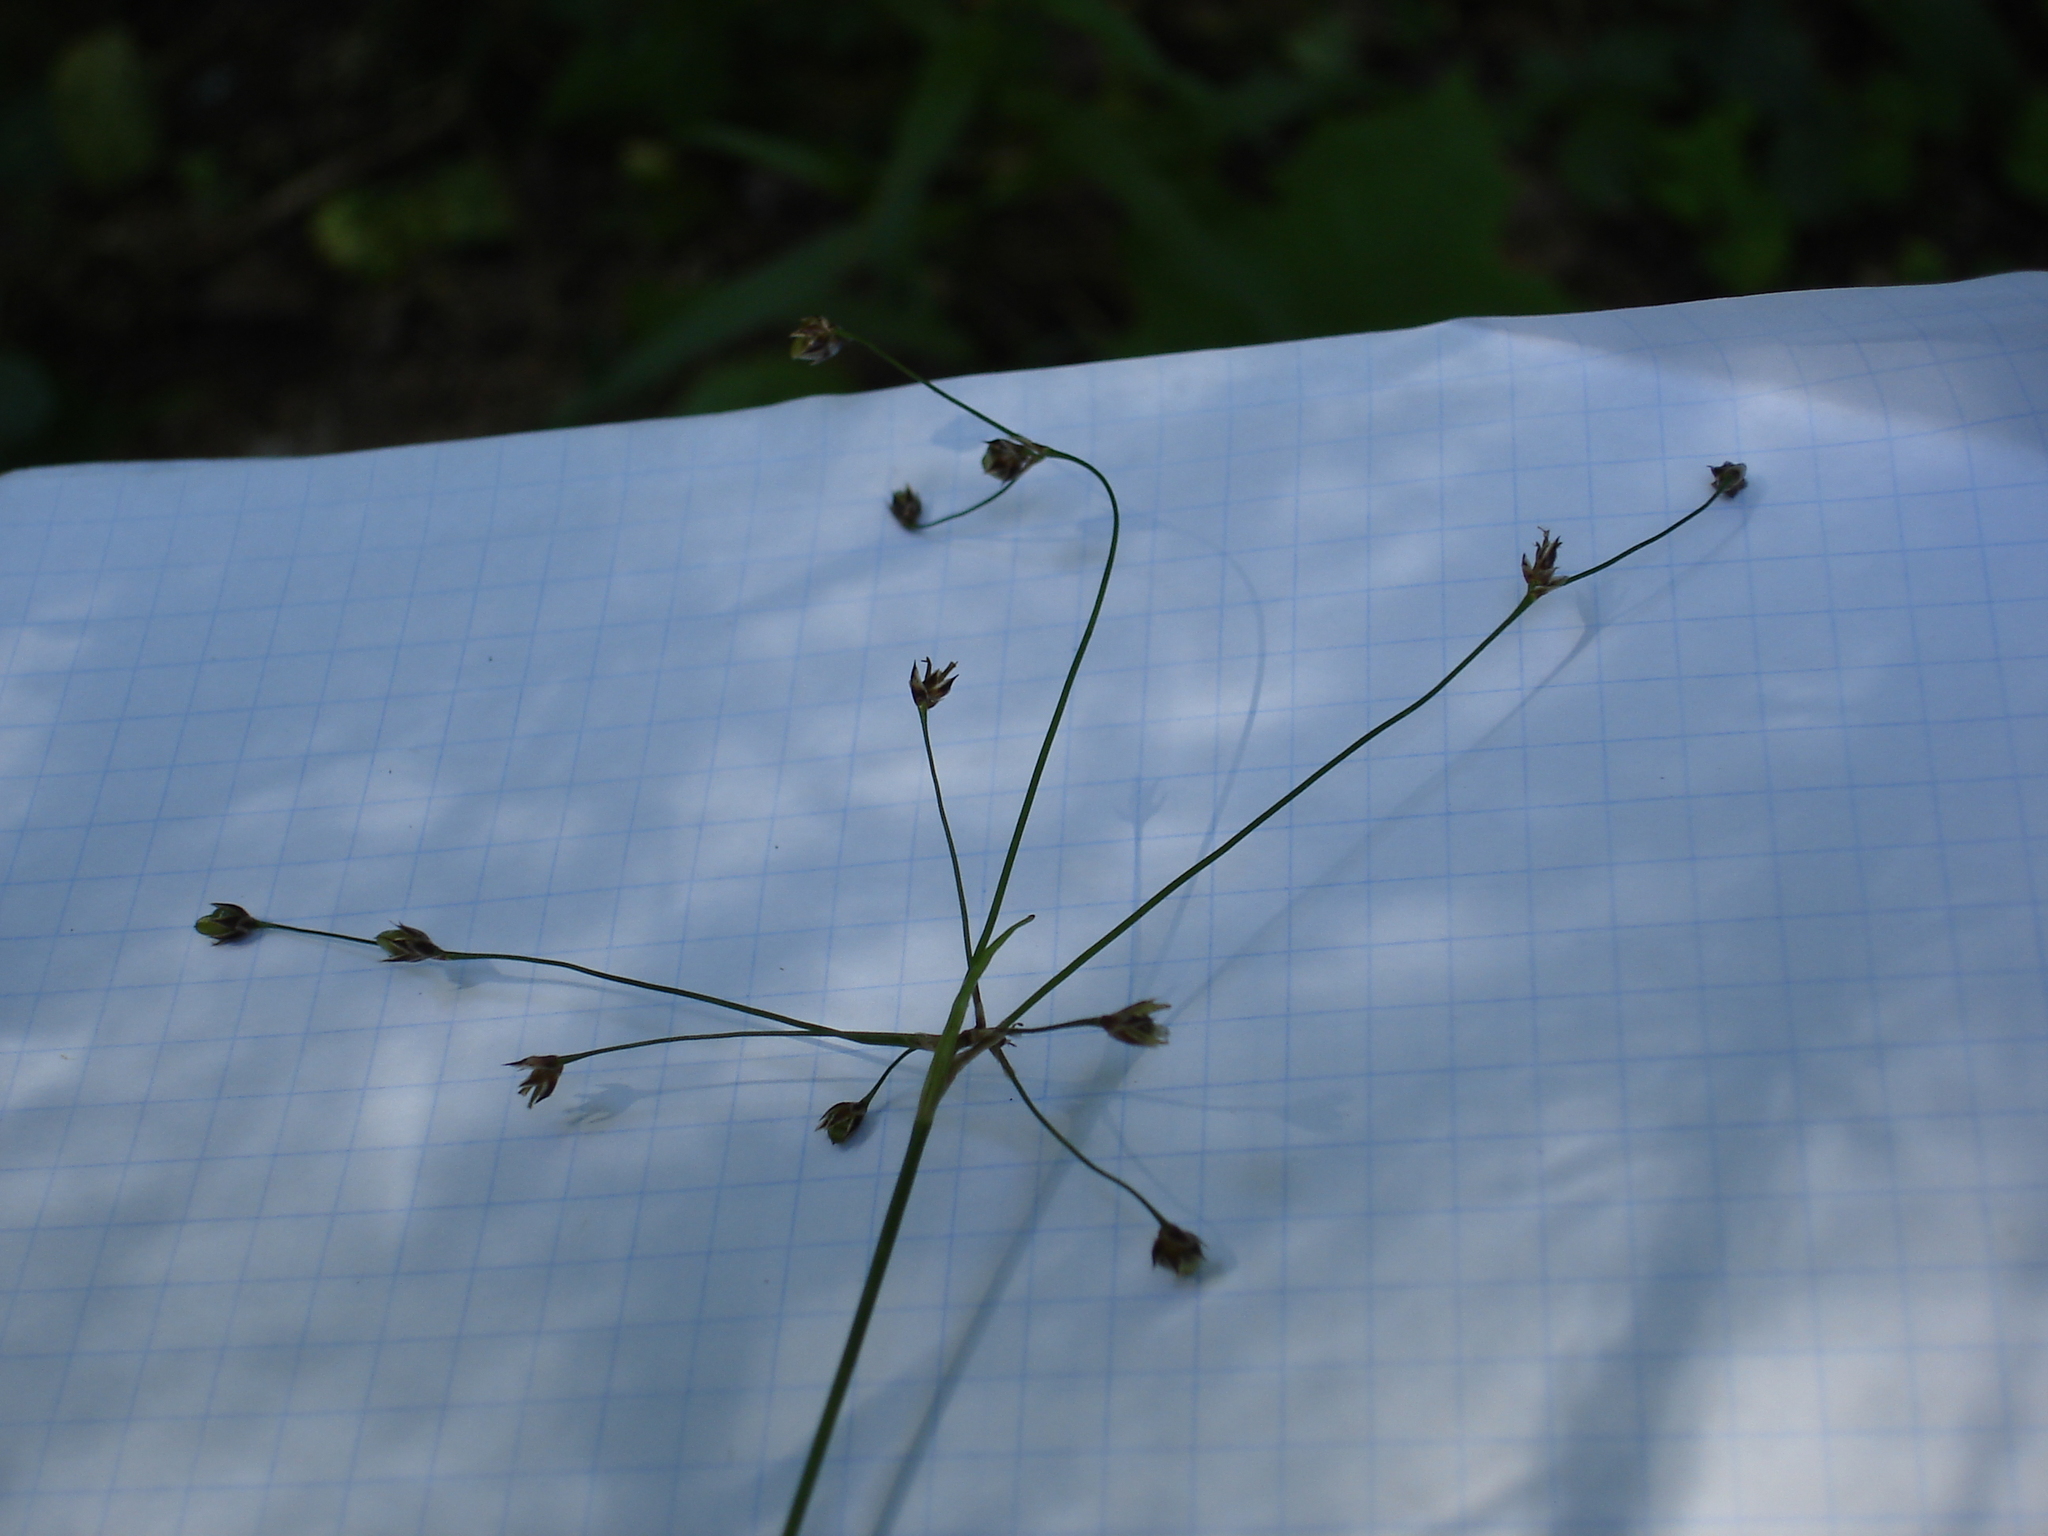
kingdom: Plantae
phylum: Tracheophyta
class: Liliopsida
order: Poales
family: Juncaceae
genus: Luzula
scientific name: Luzula pilosa
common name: Hairy wood-rush
